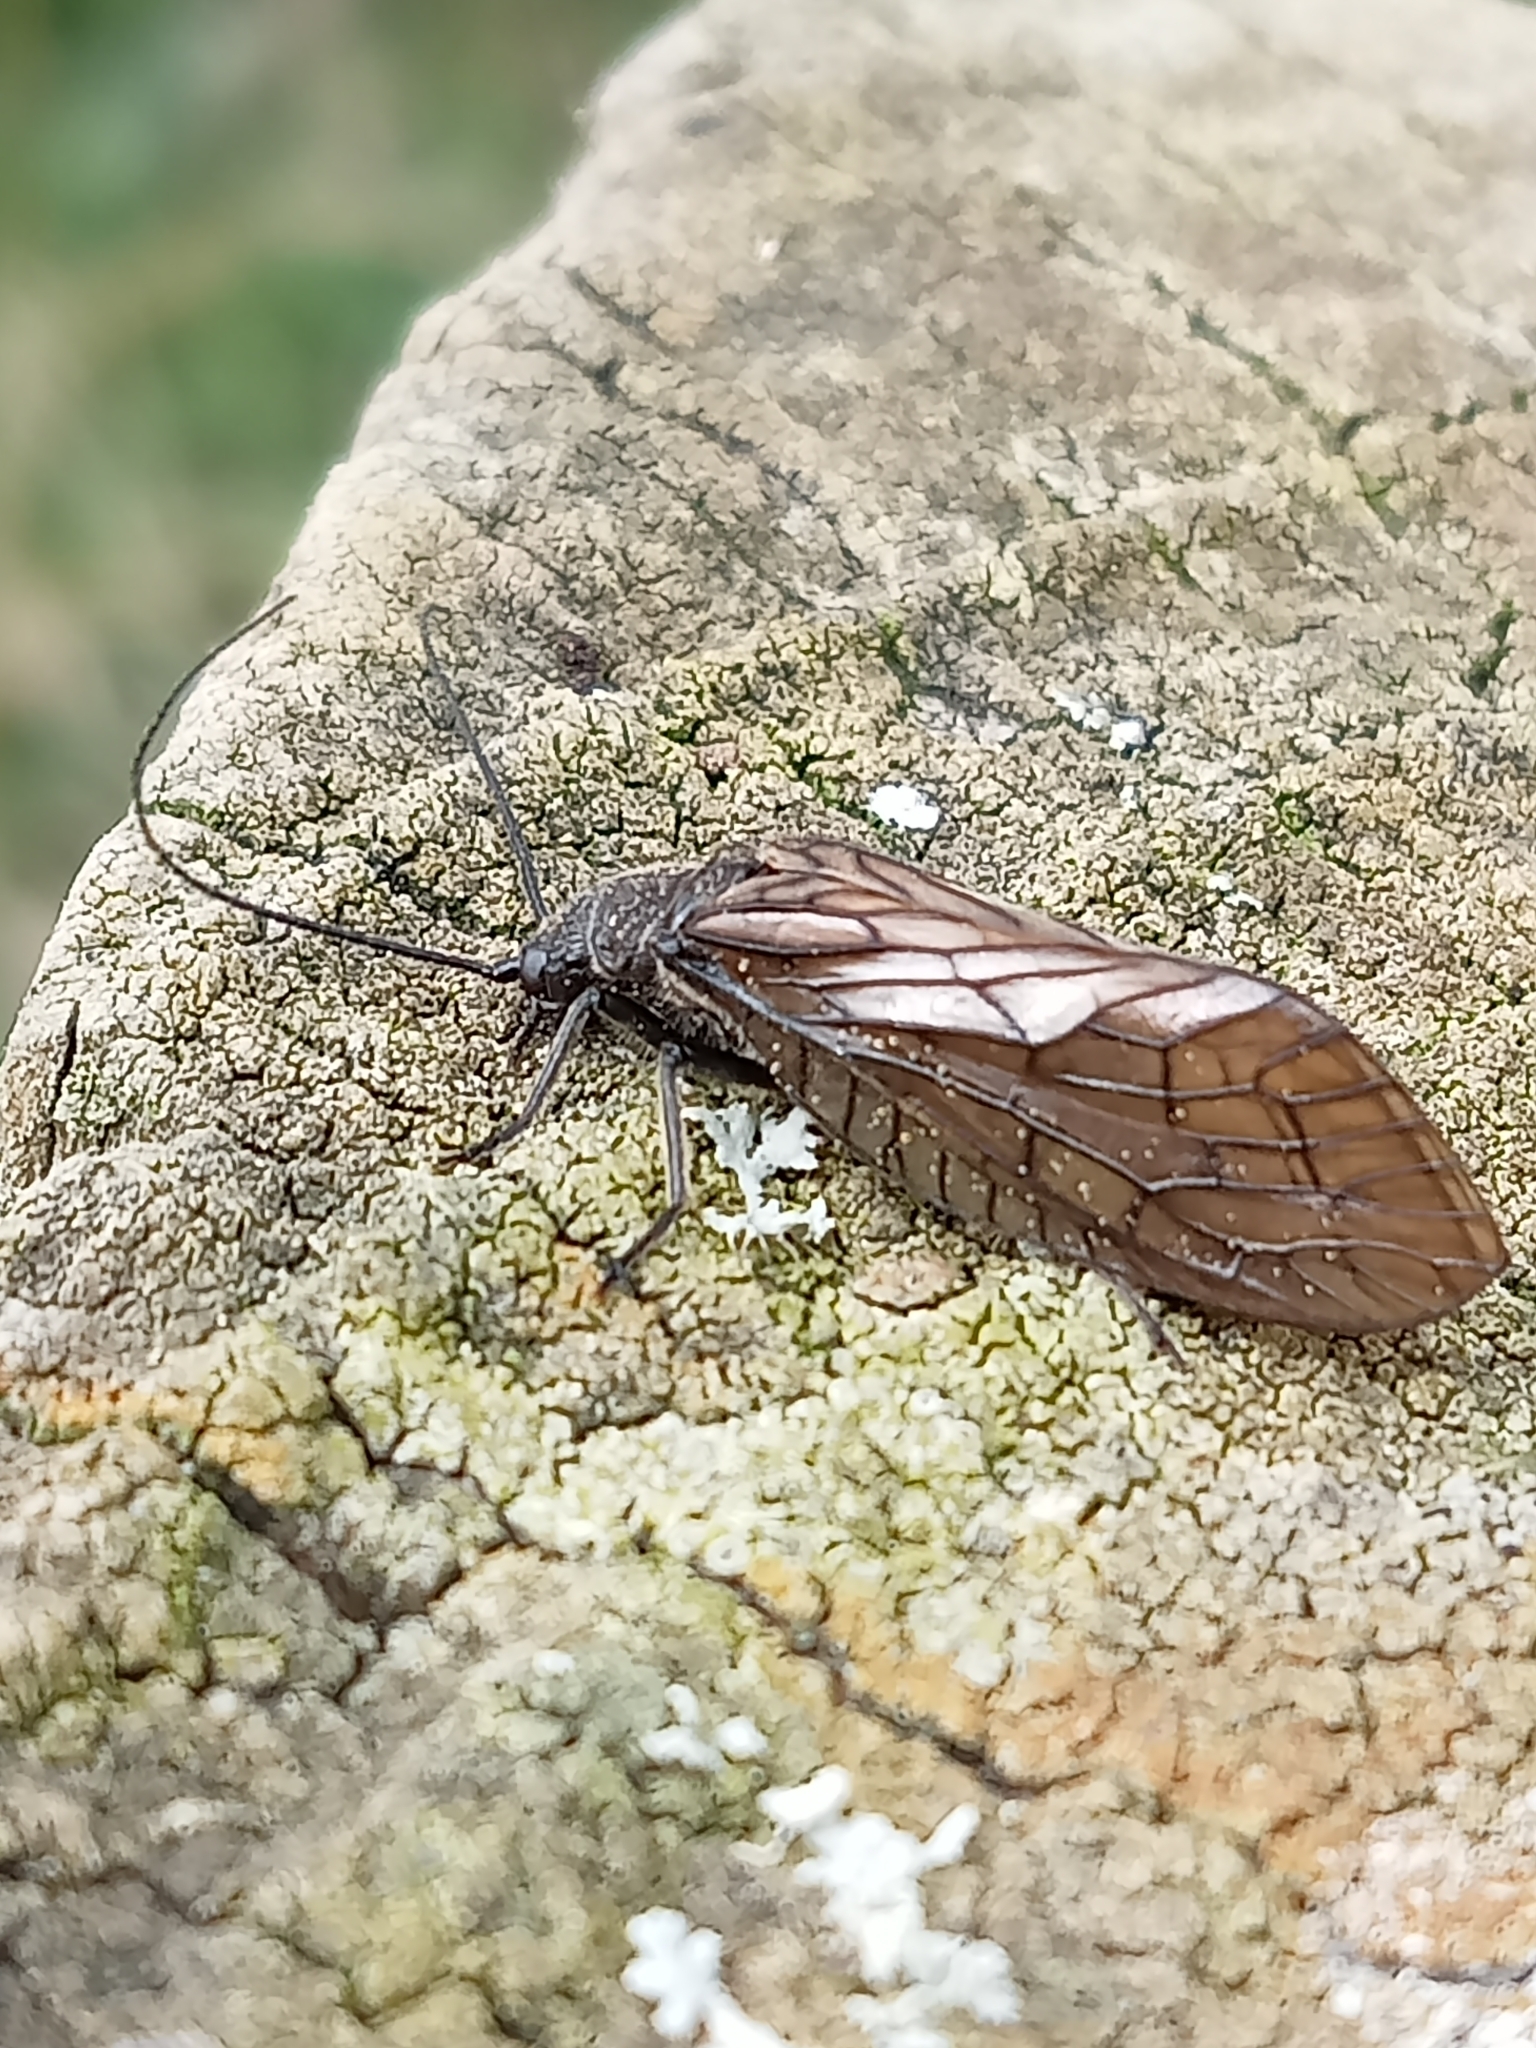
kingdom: Animalia
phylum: Arthropoda
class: Insecta
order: Megaloptera
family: Sialidae
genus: Sialis
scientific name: Sialis
